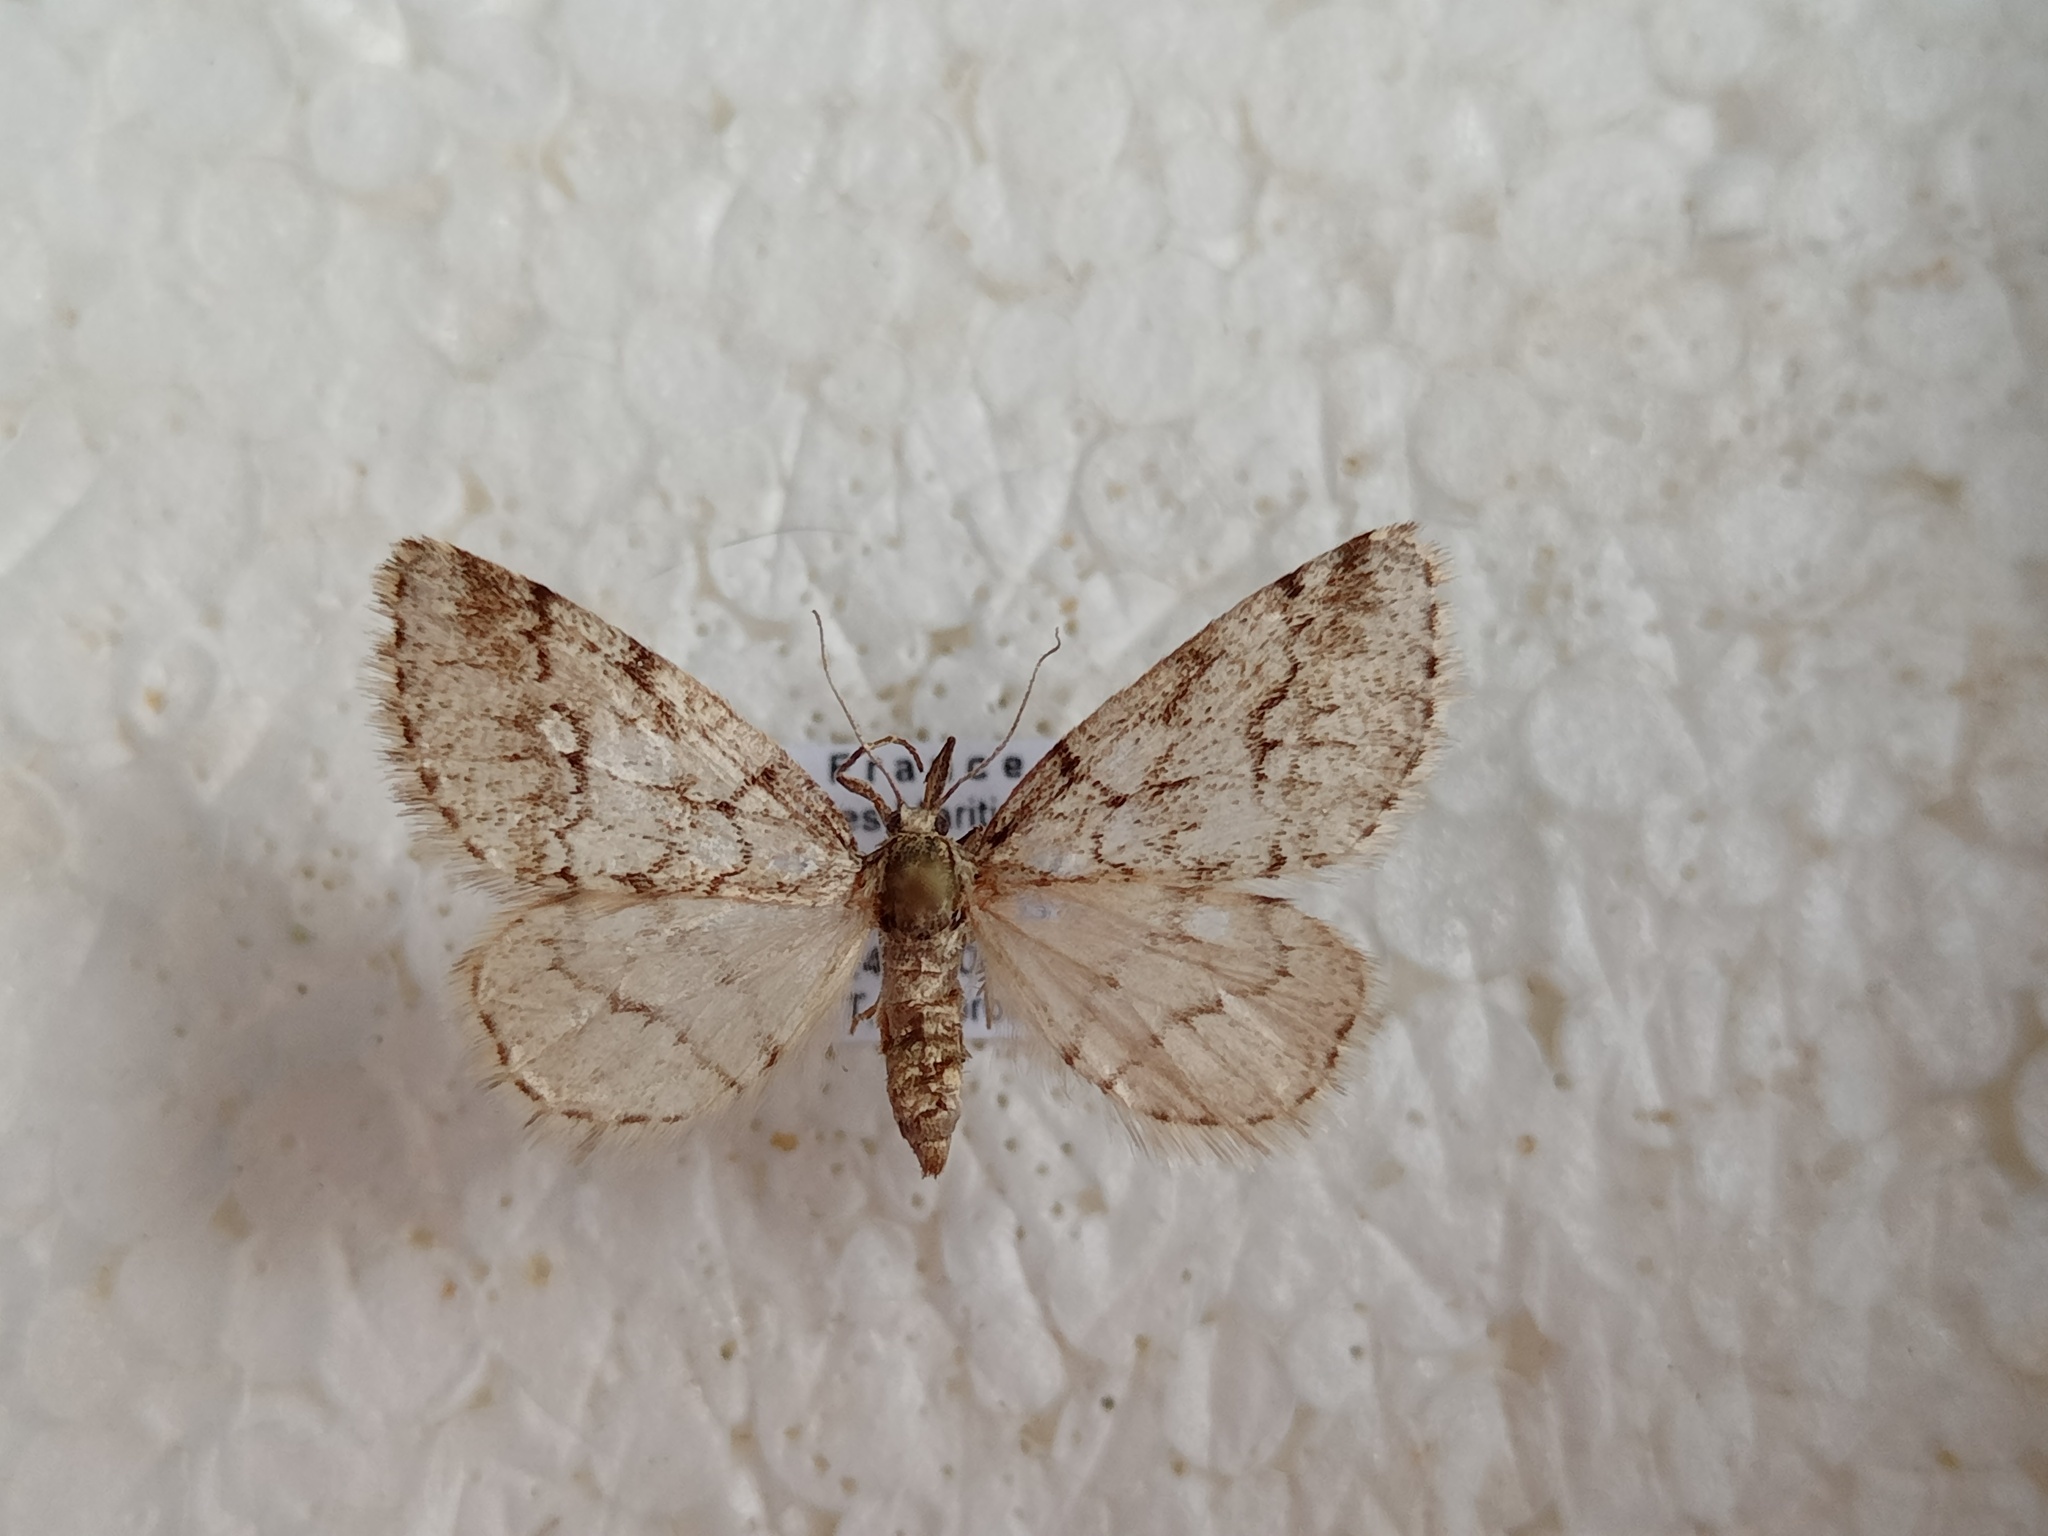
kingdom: Animalia
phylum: Arthropoda
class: Insecta
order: Lepidoptera
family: Geometridae
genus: Tephronia
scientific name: Tephronia lhommaria
